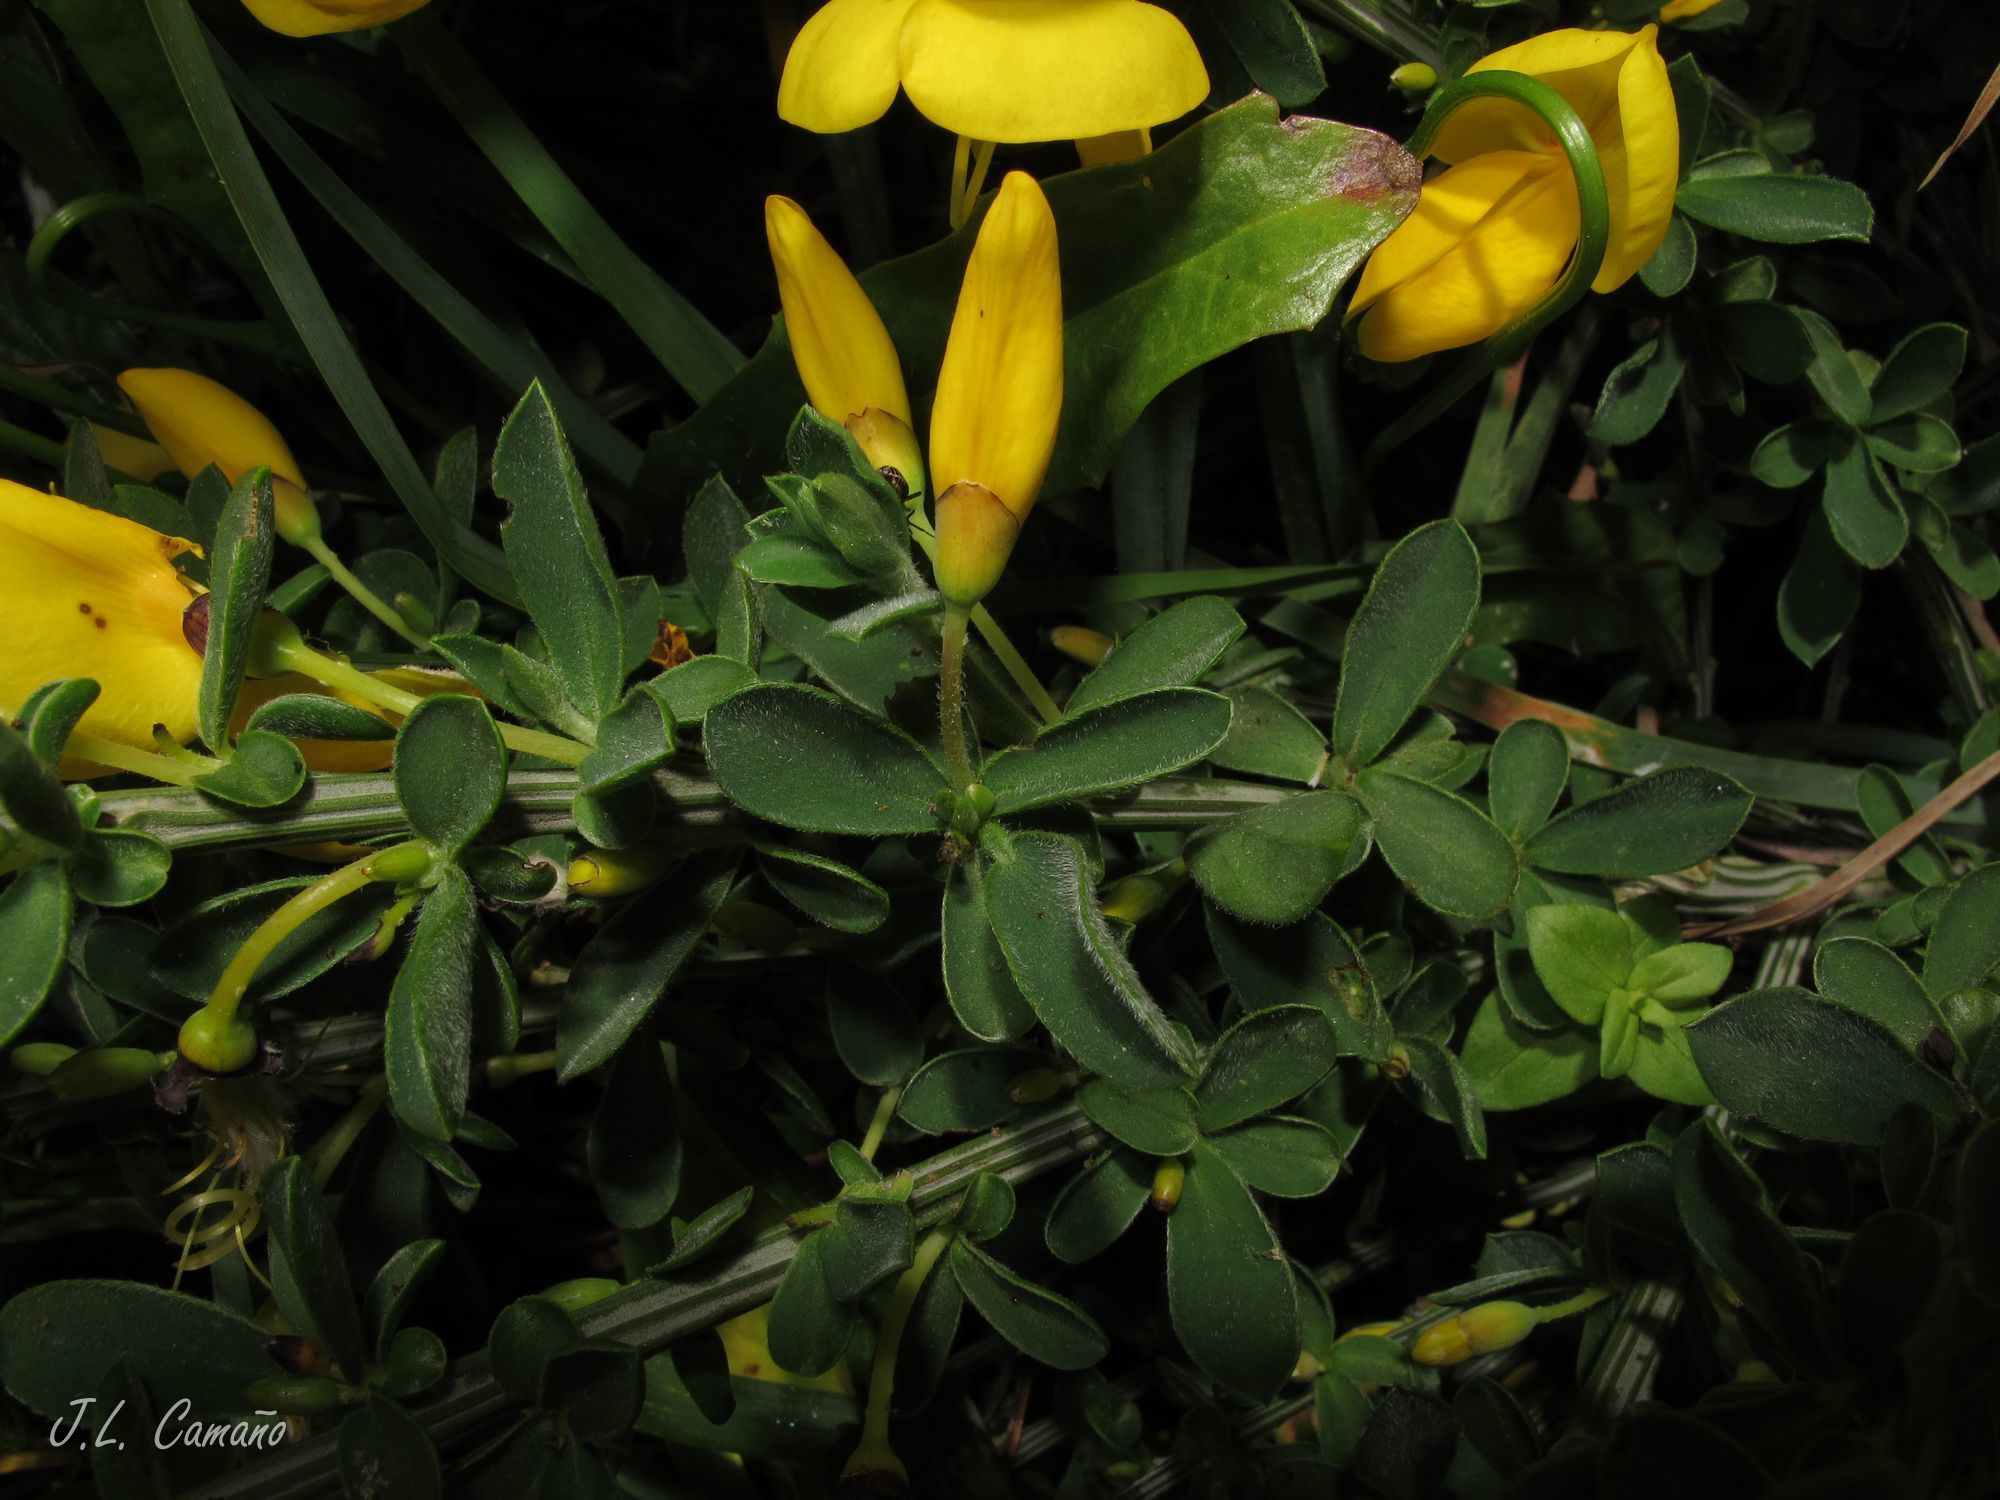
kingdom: Plantae
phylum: Tracheophyta
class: Magnoliopsida
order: Fabales
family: Fabaceae
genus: Cytisus
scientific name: Cytisus scoparius
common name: Scotch broom
